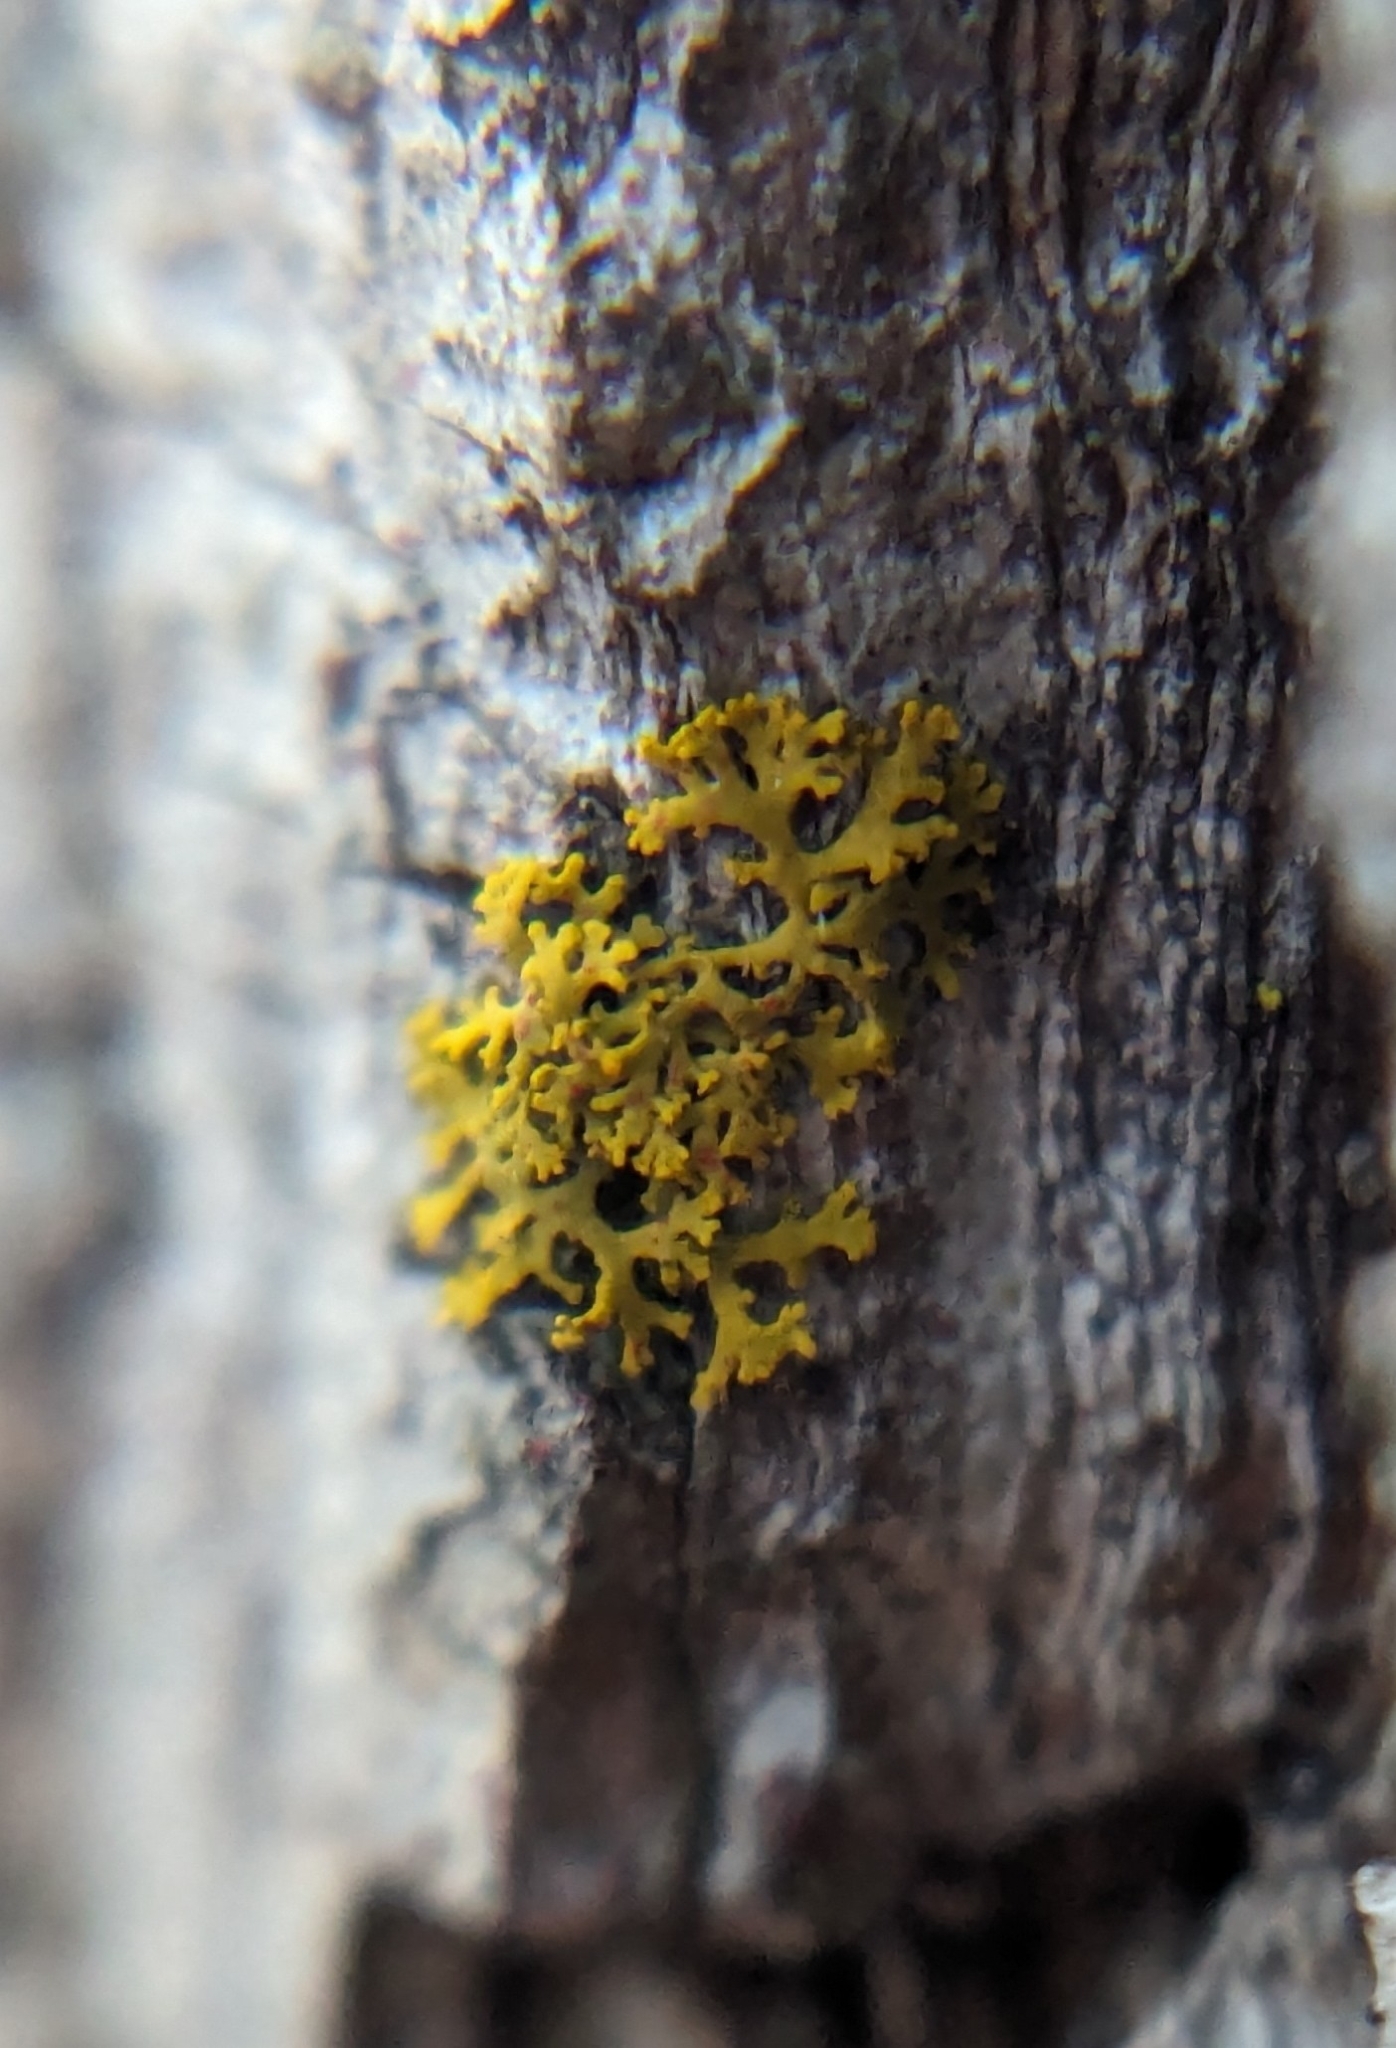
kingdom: Fungi
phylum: Ascomycota
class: Lecanoromycetes
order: Teloschistales
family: Teloschistaceae
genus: Gallowayella
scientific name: Gallowayella weberi
